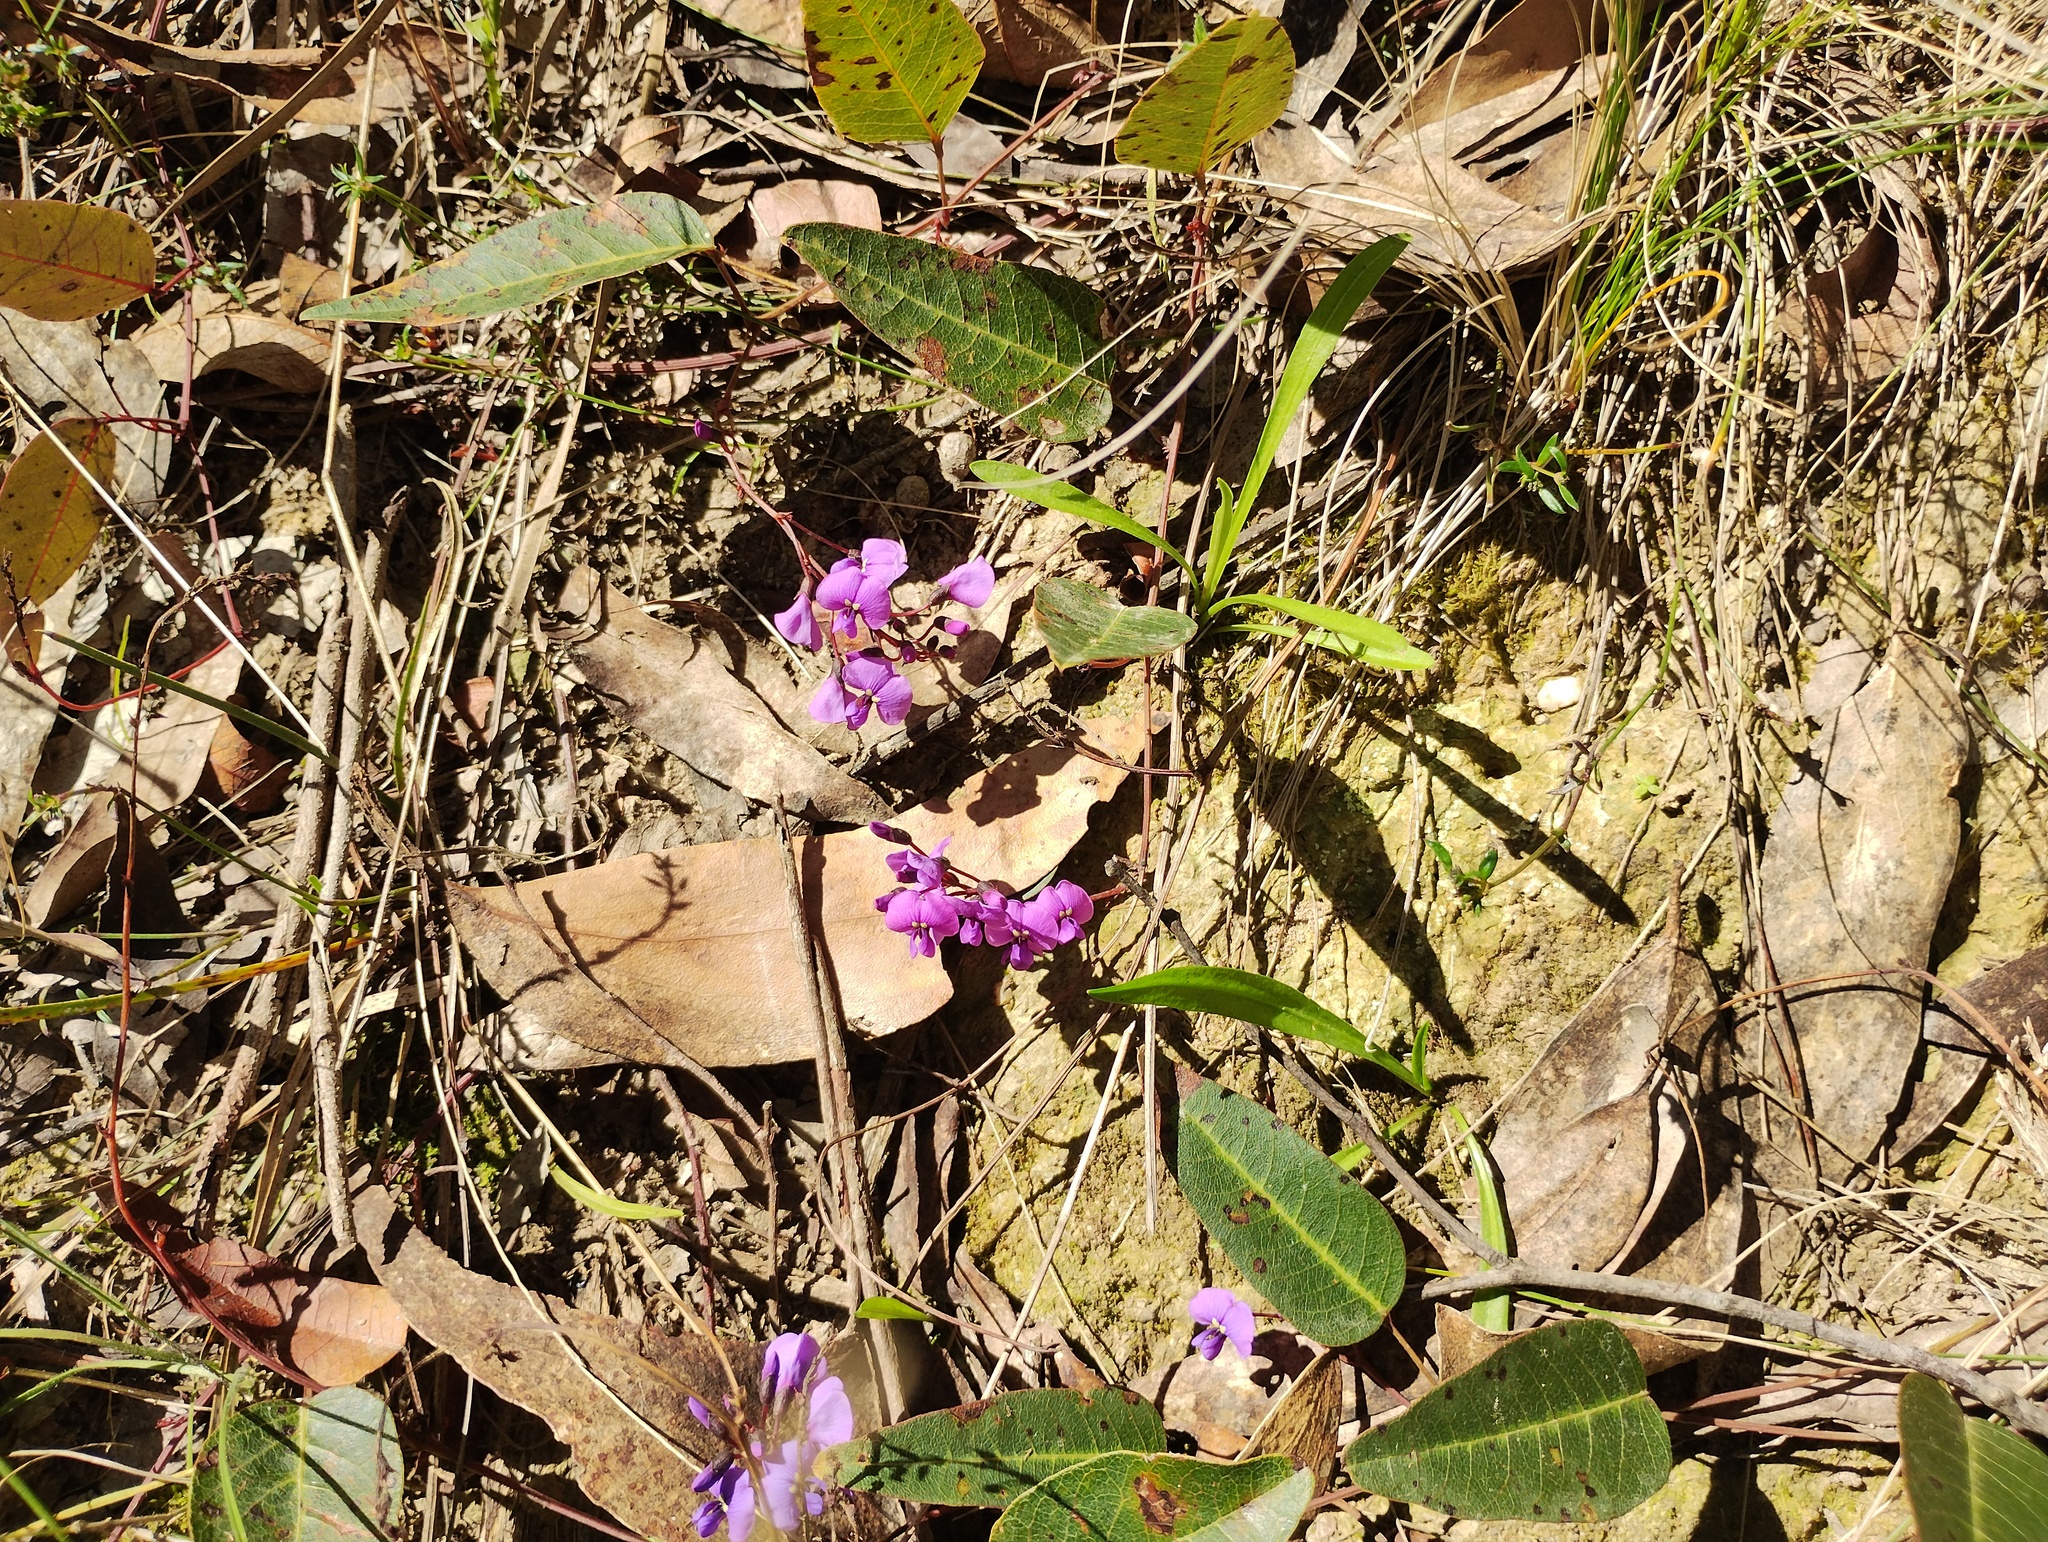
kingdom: Plantae
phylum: Tracheophyta
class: Magnoliopsida
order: Fabales
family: Fabaceae
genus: Hardenbergia
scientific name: Hardenbergia violacea
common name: Coral-pea
